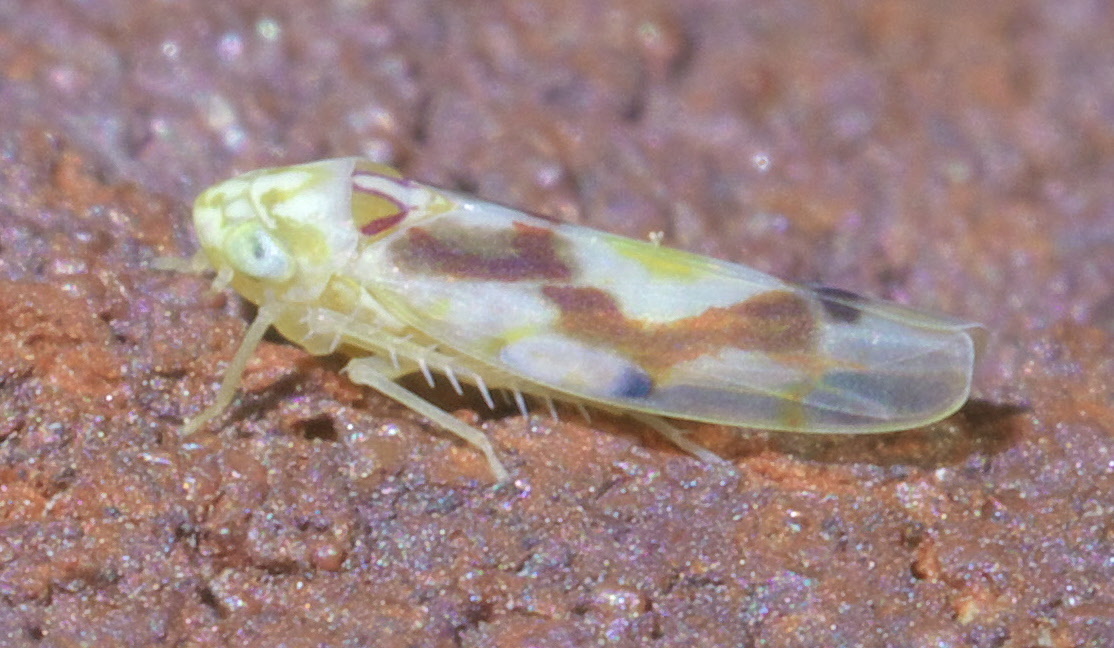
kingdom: Animalia
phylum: Arthropoda
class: Insecta
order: Hemiptera
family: Cicadellidae
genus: Eratoneura
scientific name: Eratoneura ligata
